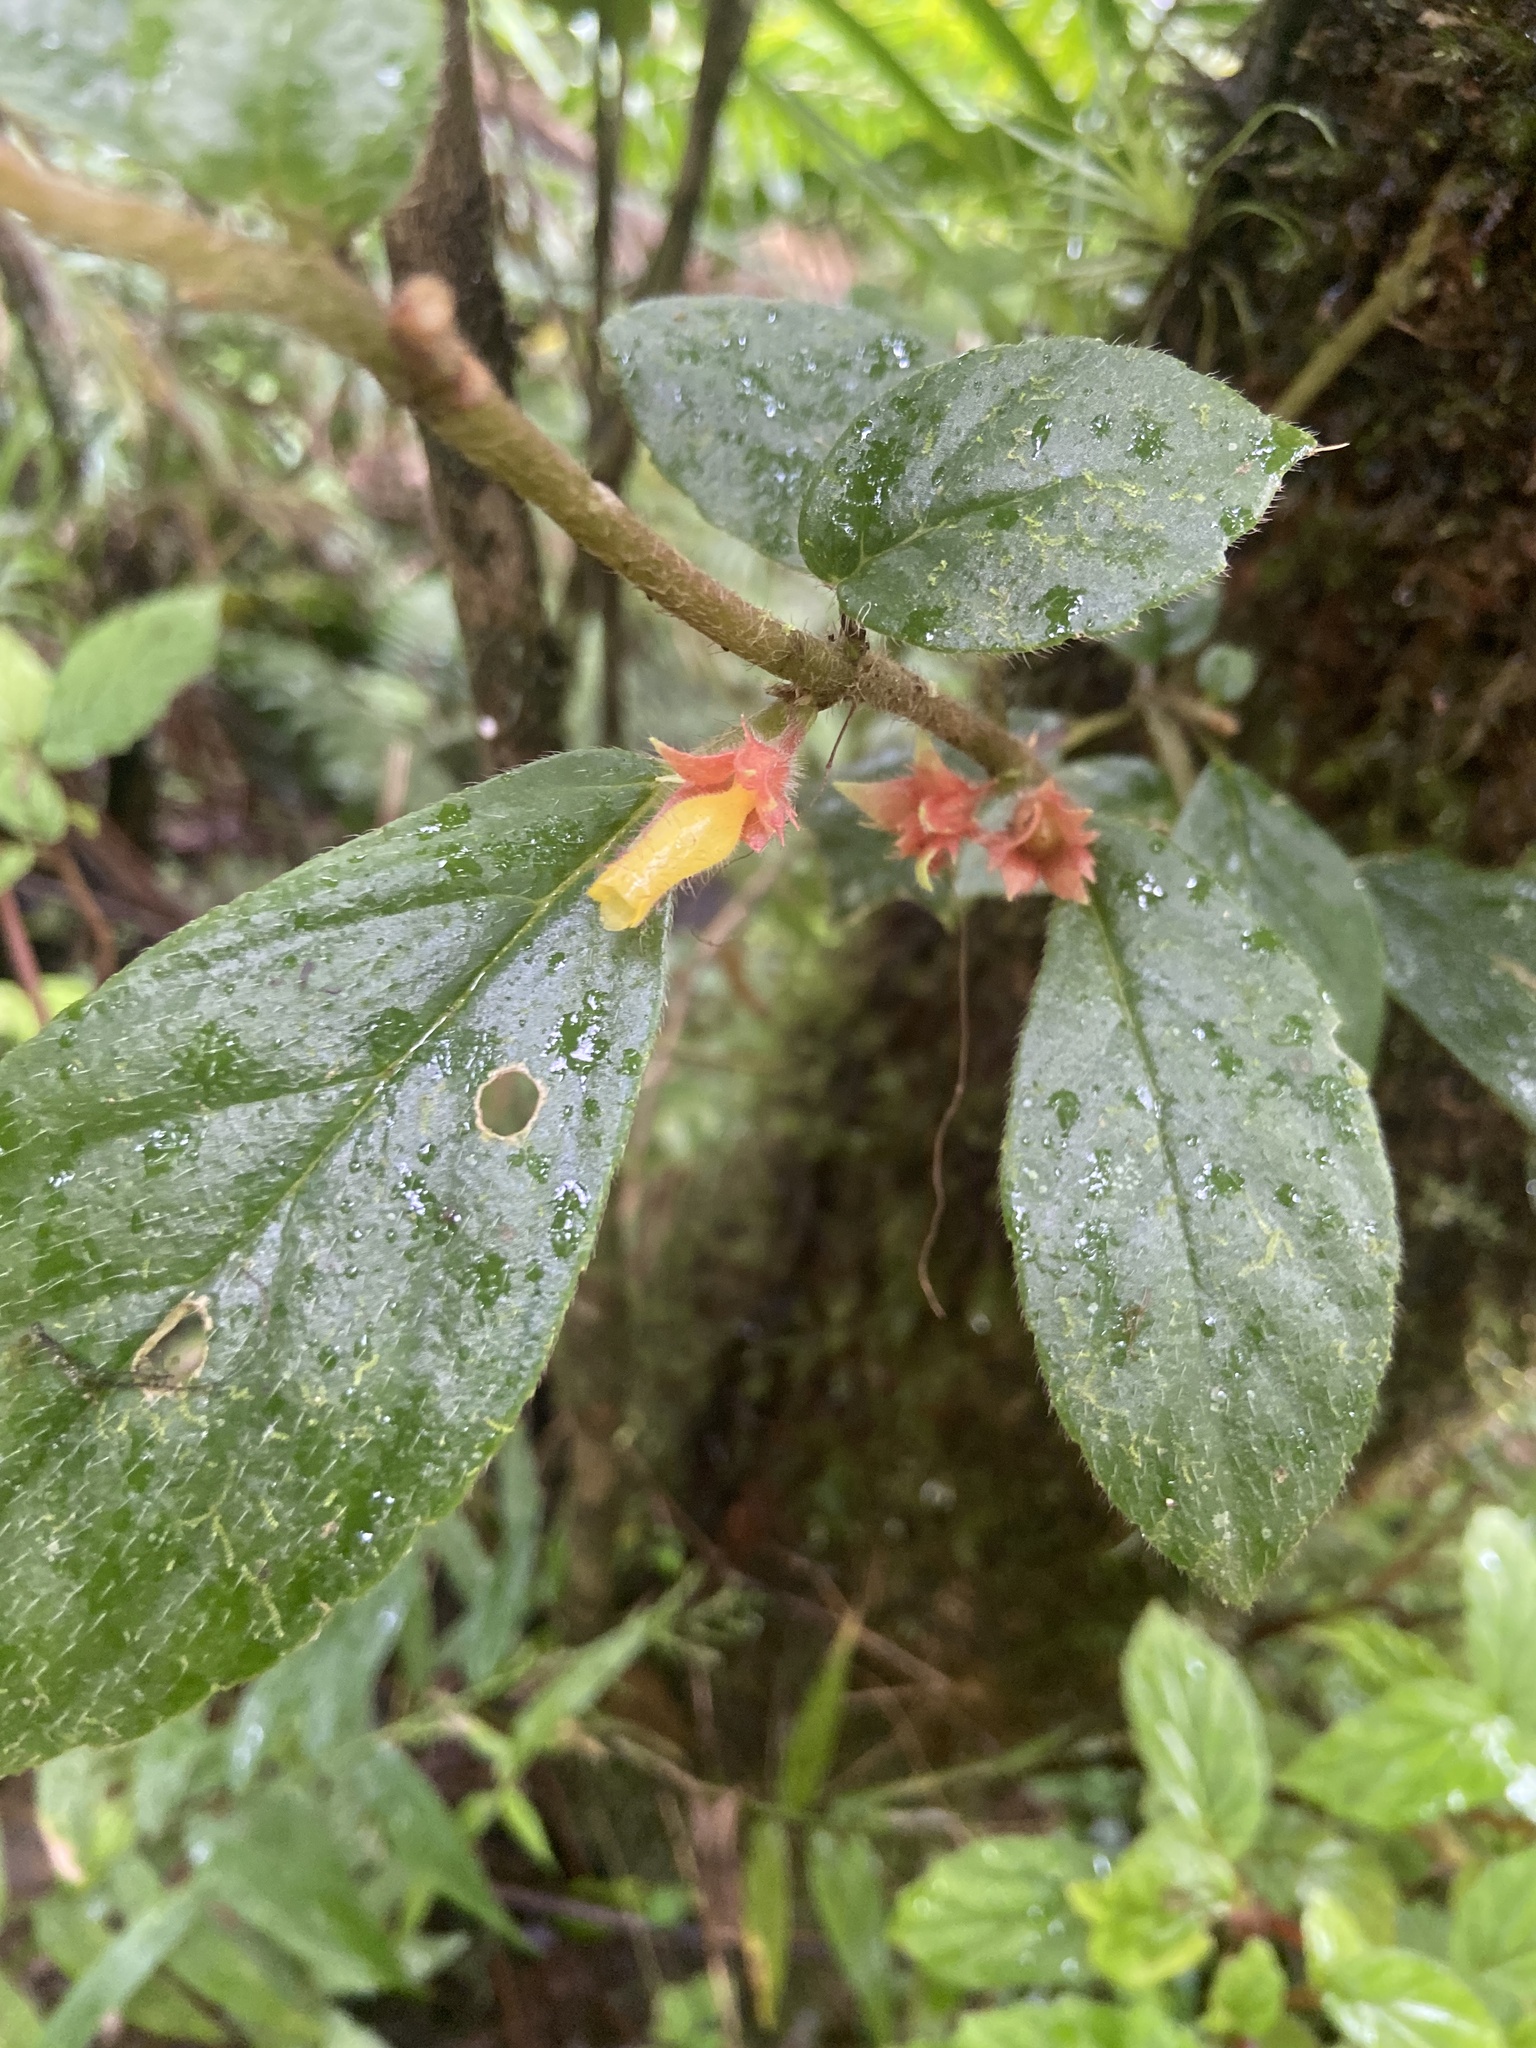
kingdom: Plantae
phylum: Tracheophyta
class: Magnoliopsida
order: Lamiales
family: Gesneriaceae
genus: Columnea
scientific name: Columnea ambigua
